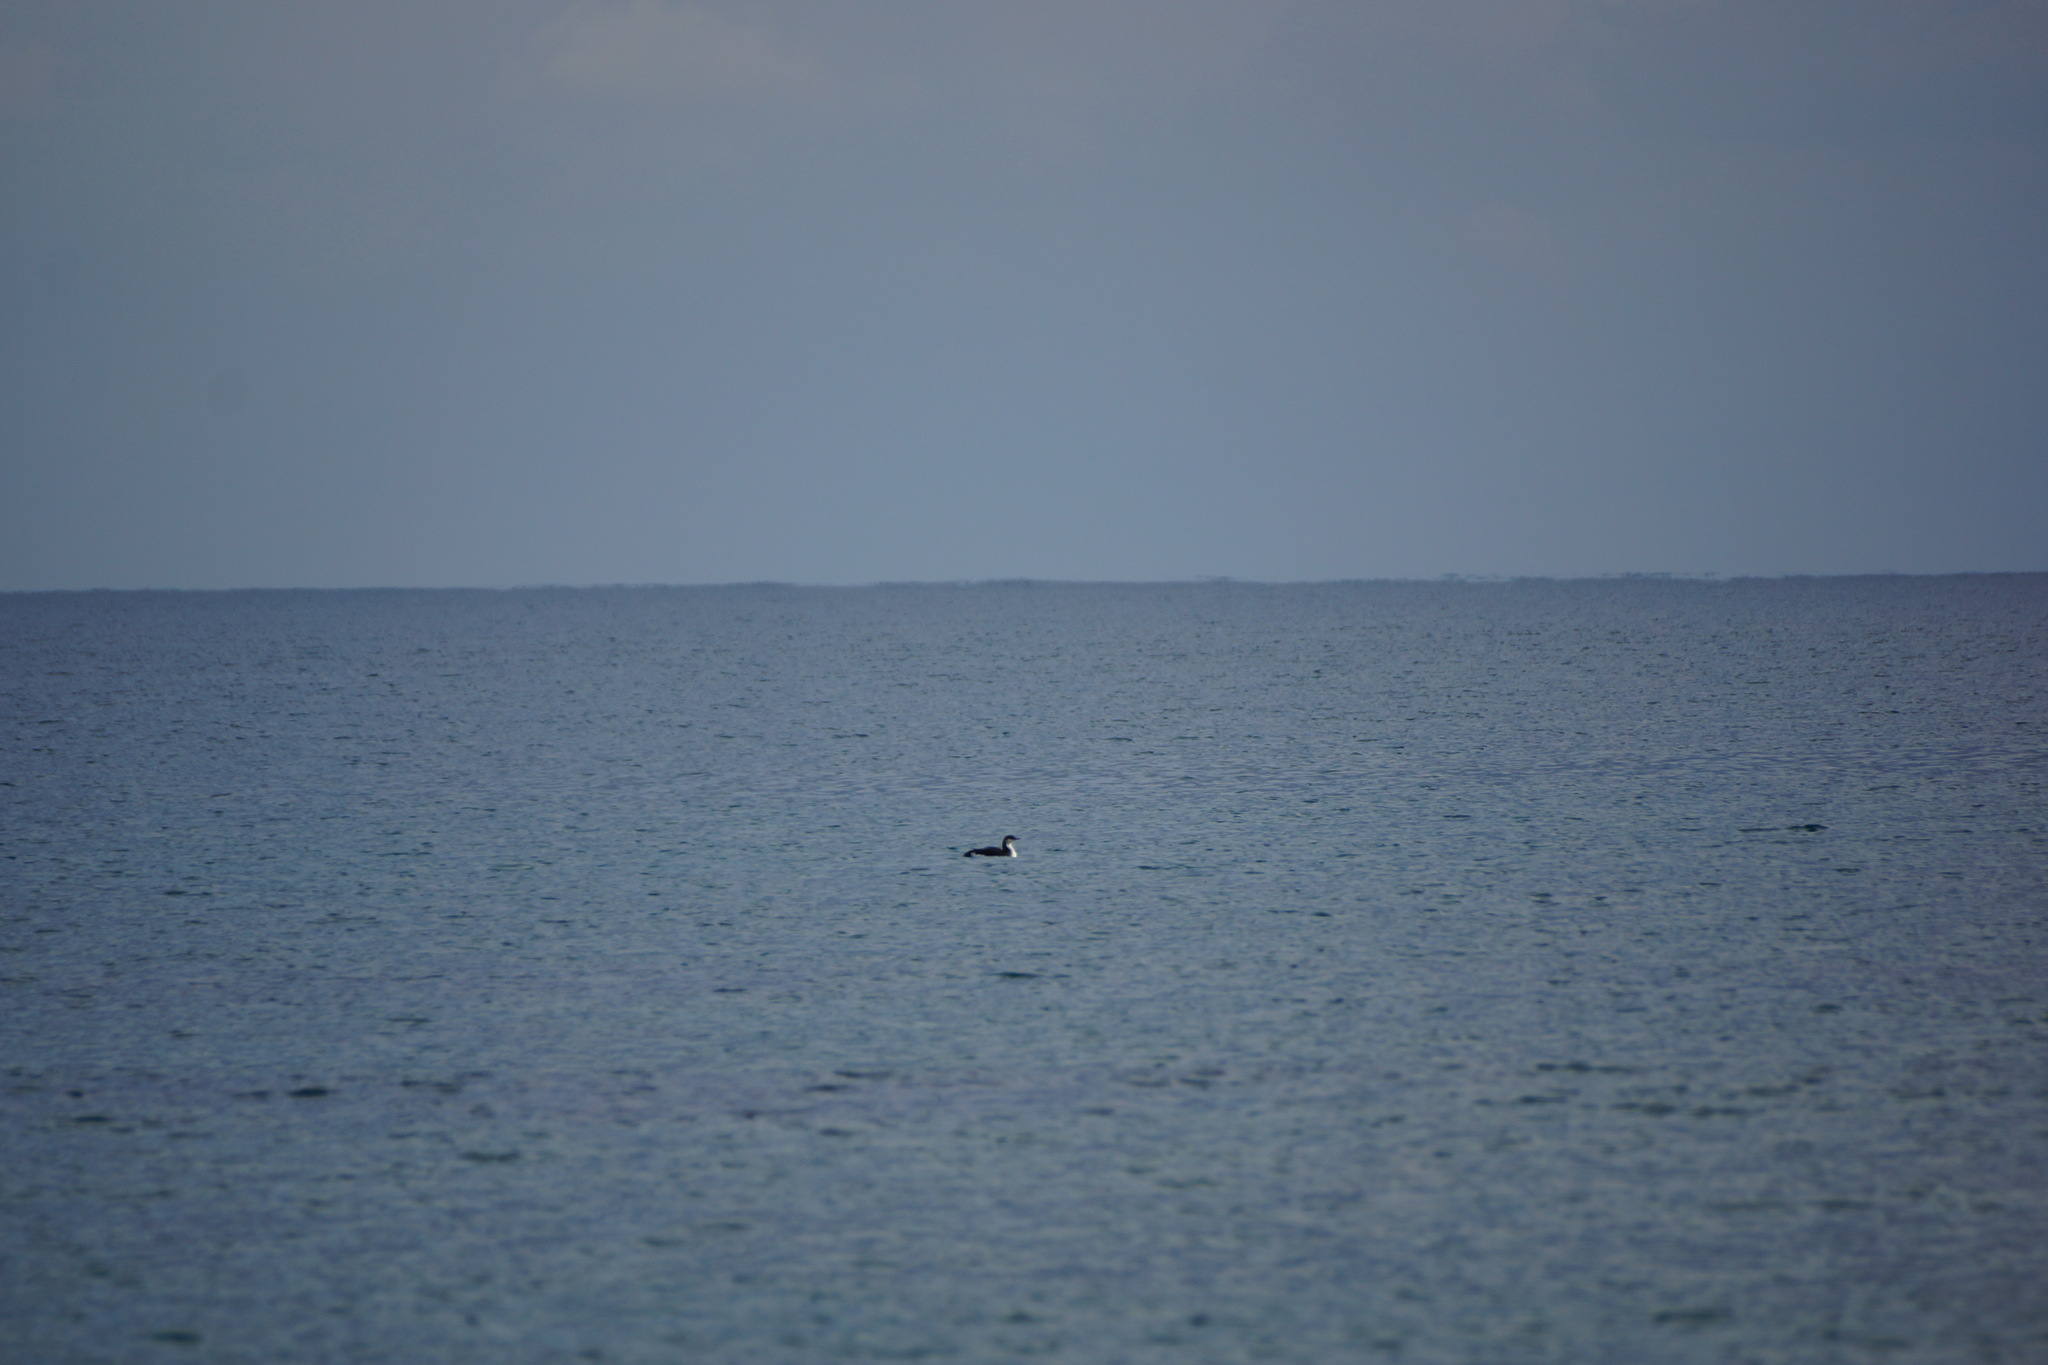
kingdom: Animalia
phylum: Chordata
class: Aves
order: Gaviiformes
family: Gaviidae
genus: Gavia
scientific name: Gavia arctica
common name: Black-throated loon
